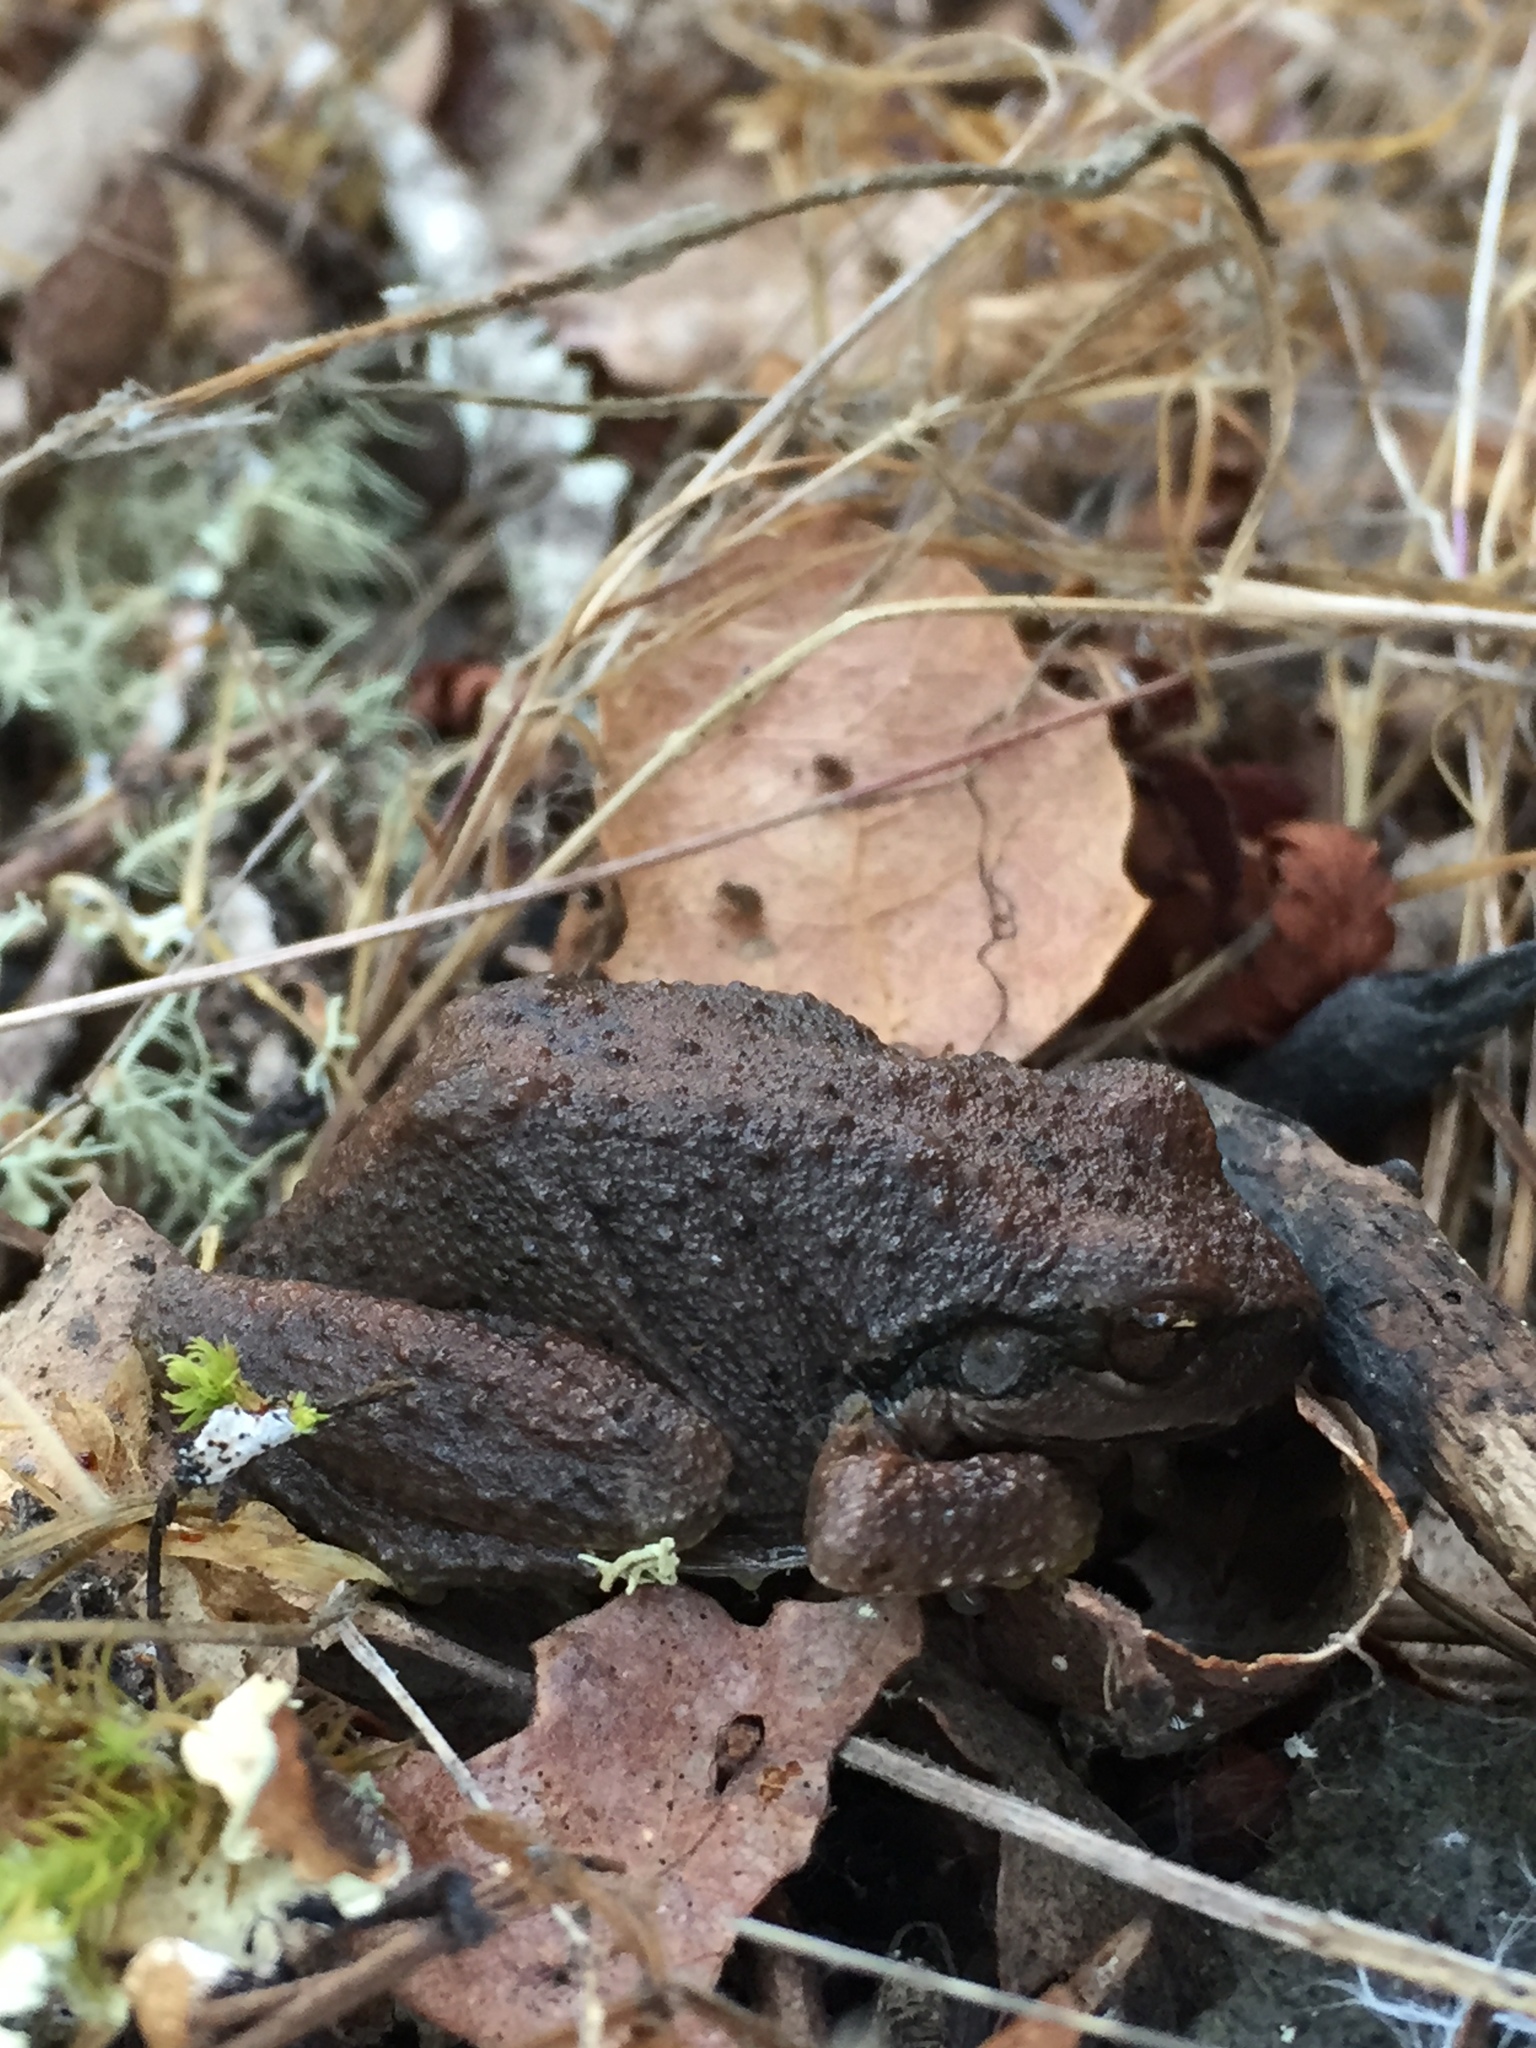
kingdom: Animalia
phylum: Chordata
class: Amphibia
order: Anura
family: Hylidae
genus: Pseudacris
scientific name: Pseudacris regilla
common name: Pacific chorus frog
